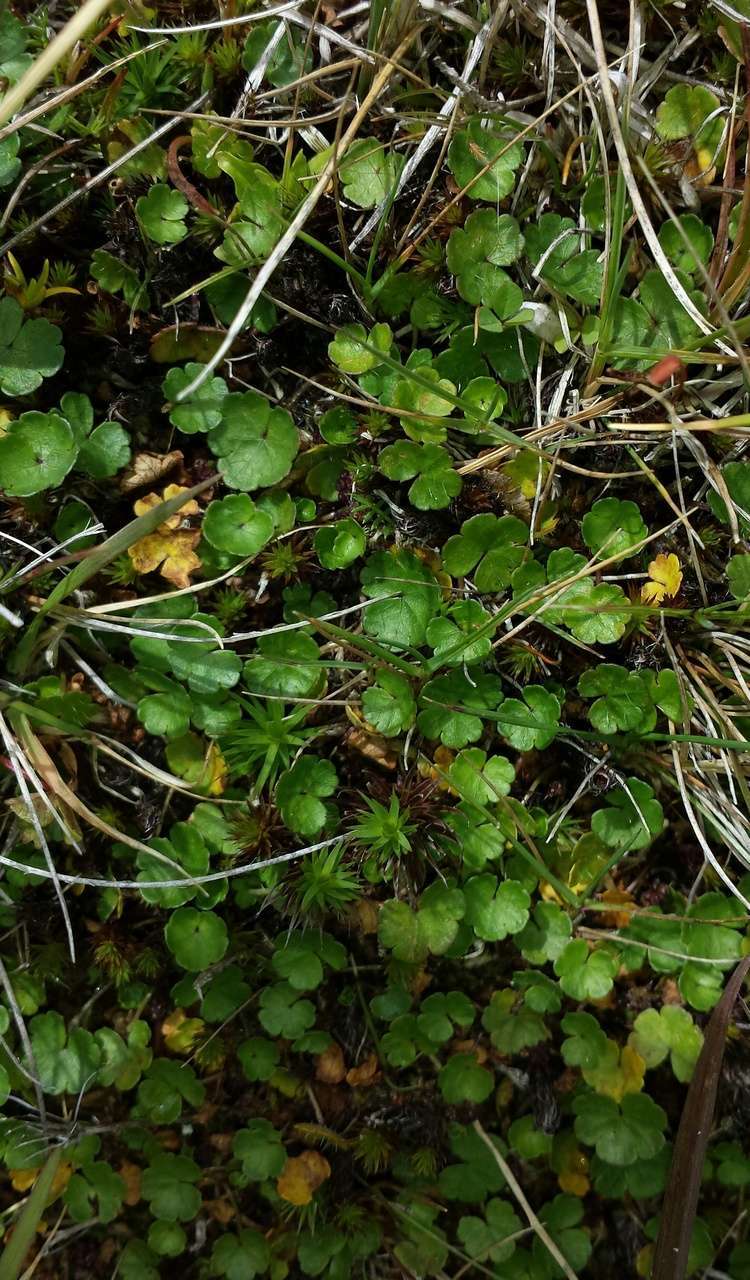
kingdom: Plantae
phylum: Tracheophyta
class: Magnoliopsida
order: Apiales
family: Araliaceae
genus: Hydrocotyle
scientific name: Hydrocotyle sibthorpioides
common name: Lawn marshpennywort
